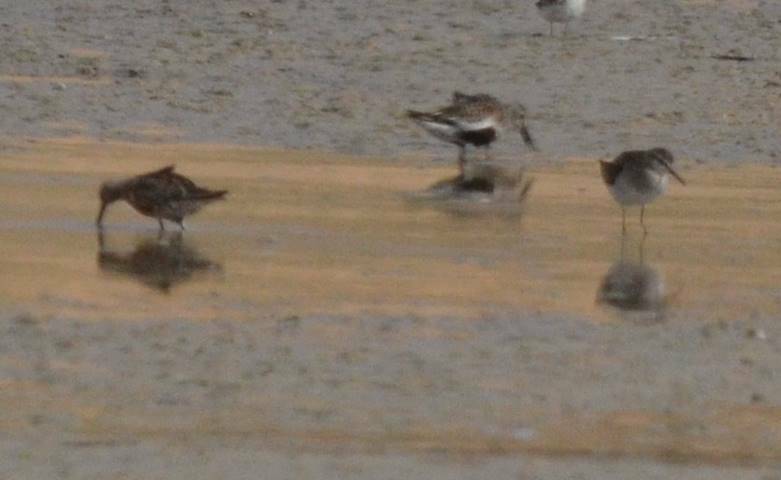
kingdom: Animalia
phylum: Chordata
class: Aves
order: Charadriiformes
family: Scolopacidae
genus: Calidris
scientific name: Calidris alpina
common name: Dunlin
